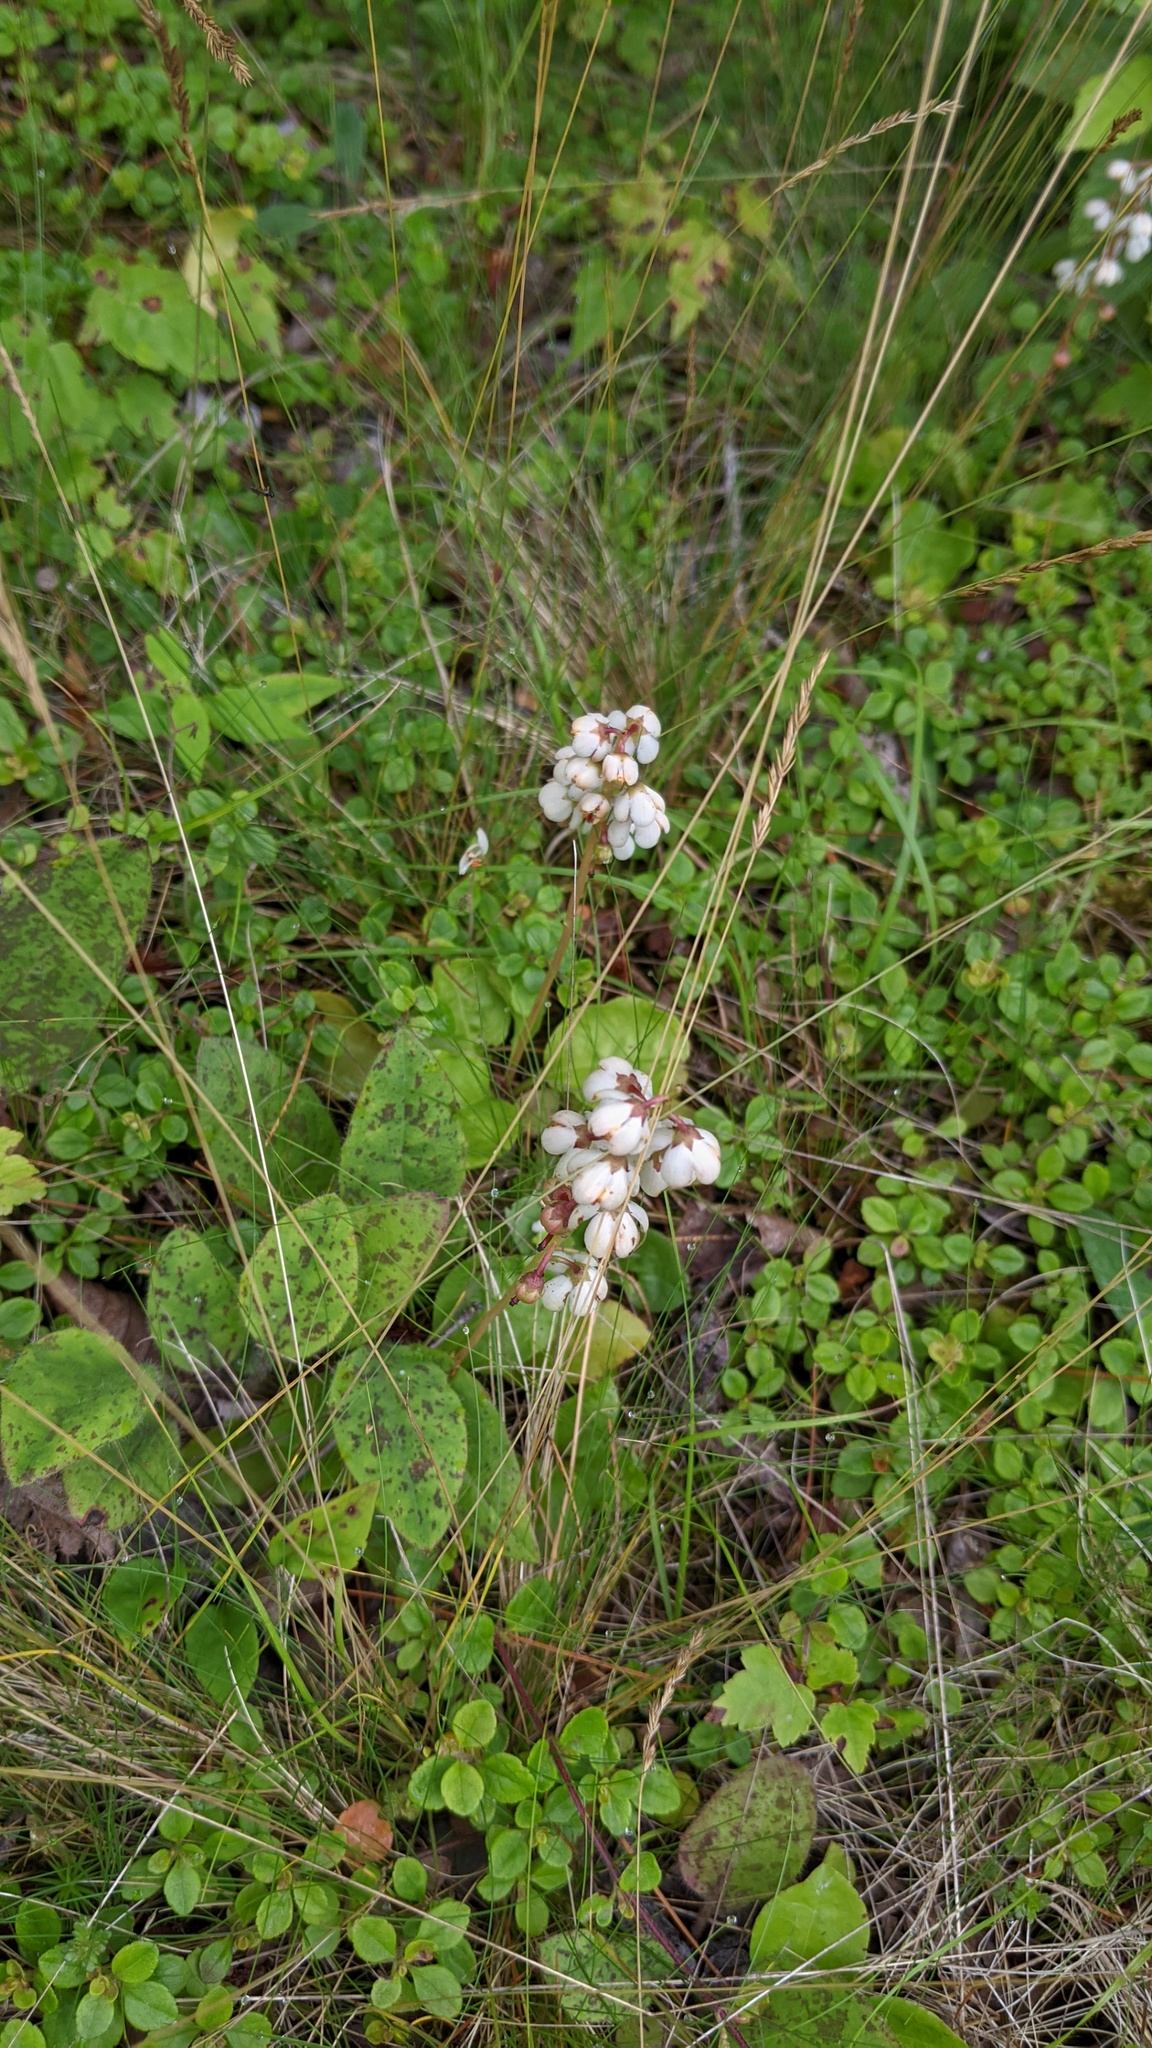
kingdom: Plantae
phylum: Tracheophyta
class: Magnoliopsida
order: Ericales
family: Ericaceae
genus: Pyrola
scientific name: Pyrola elliptica
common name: Shinleaf
